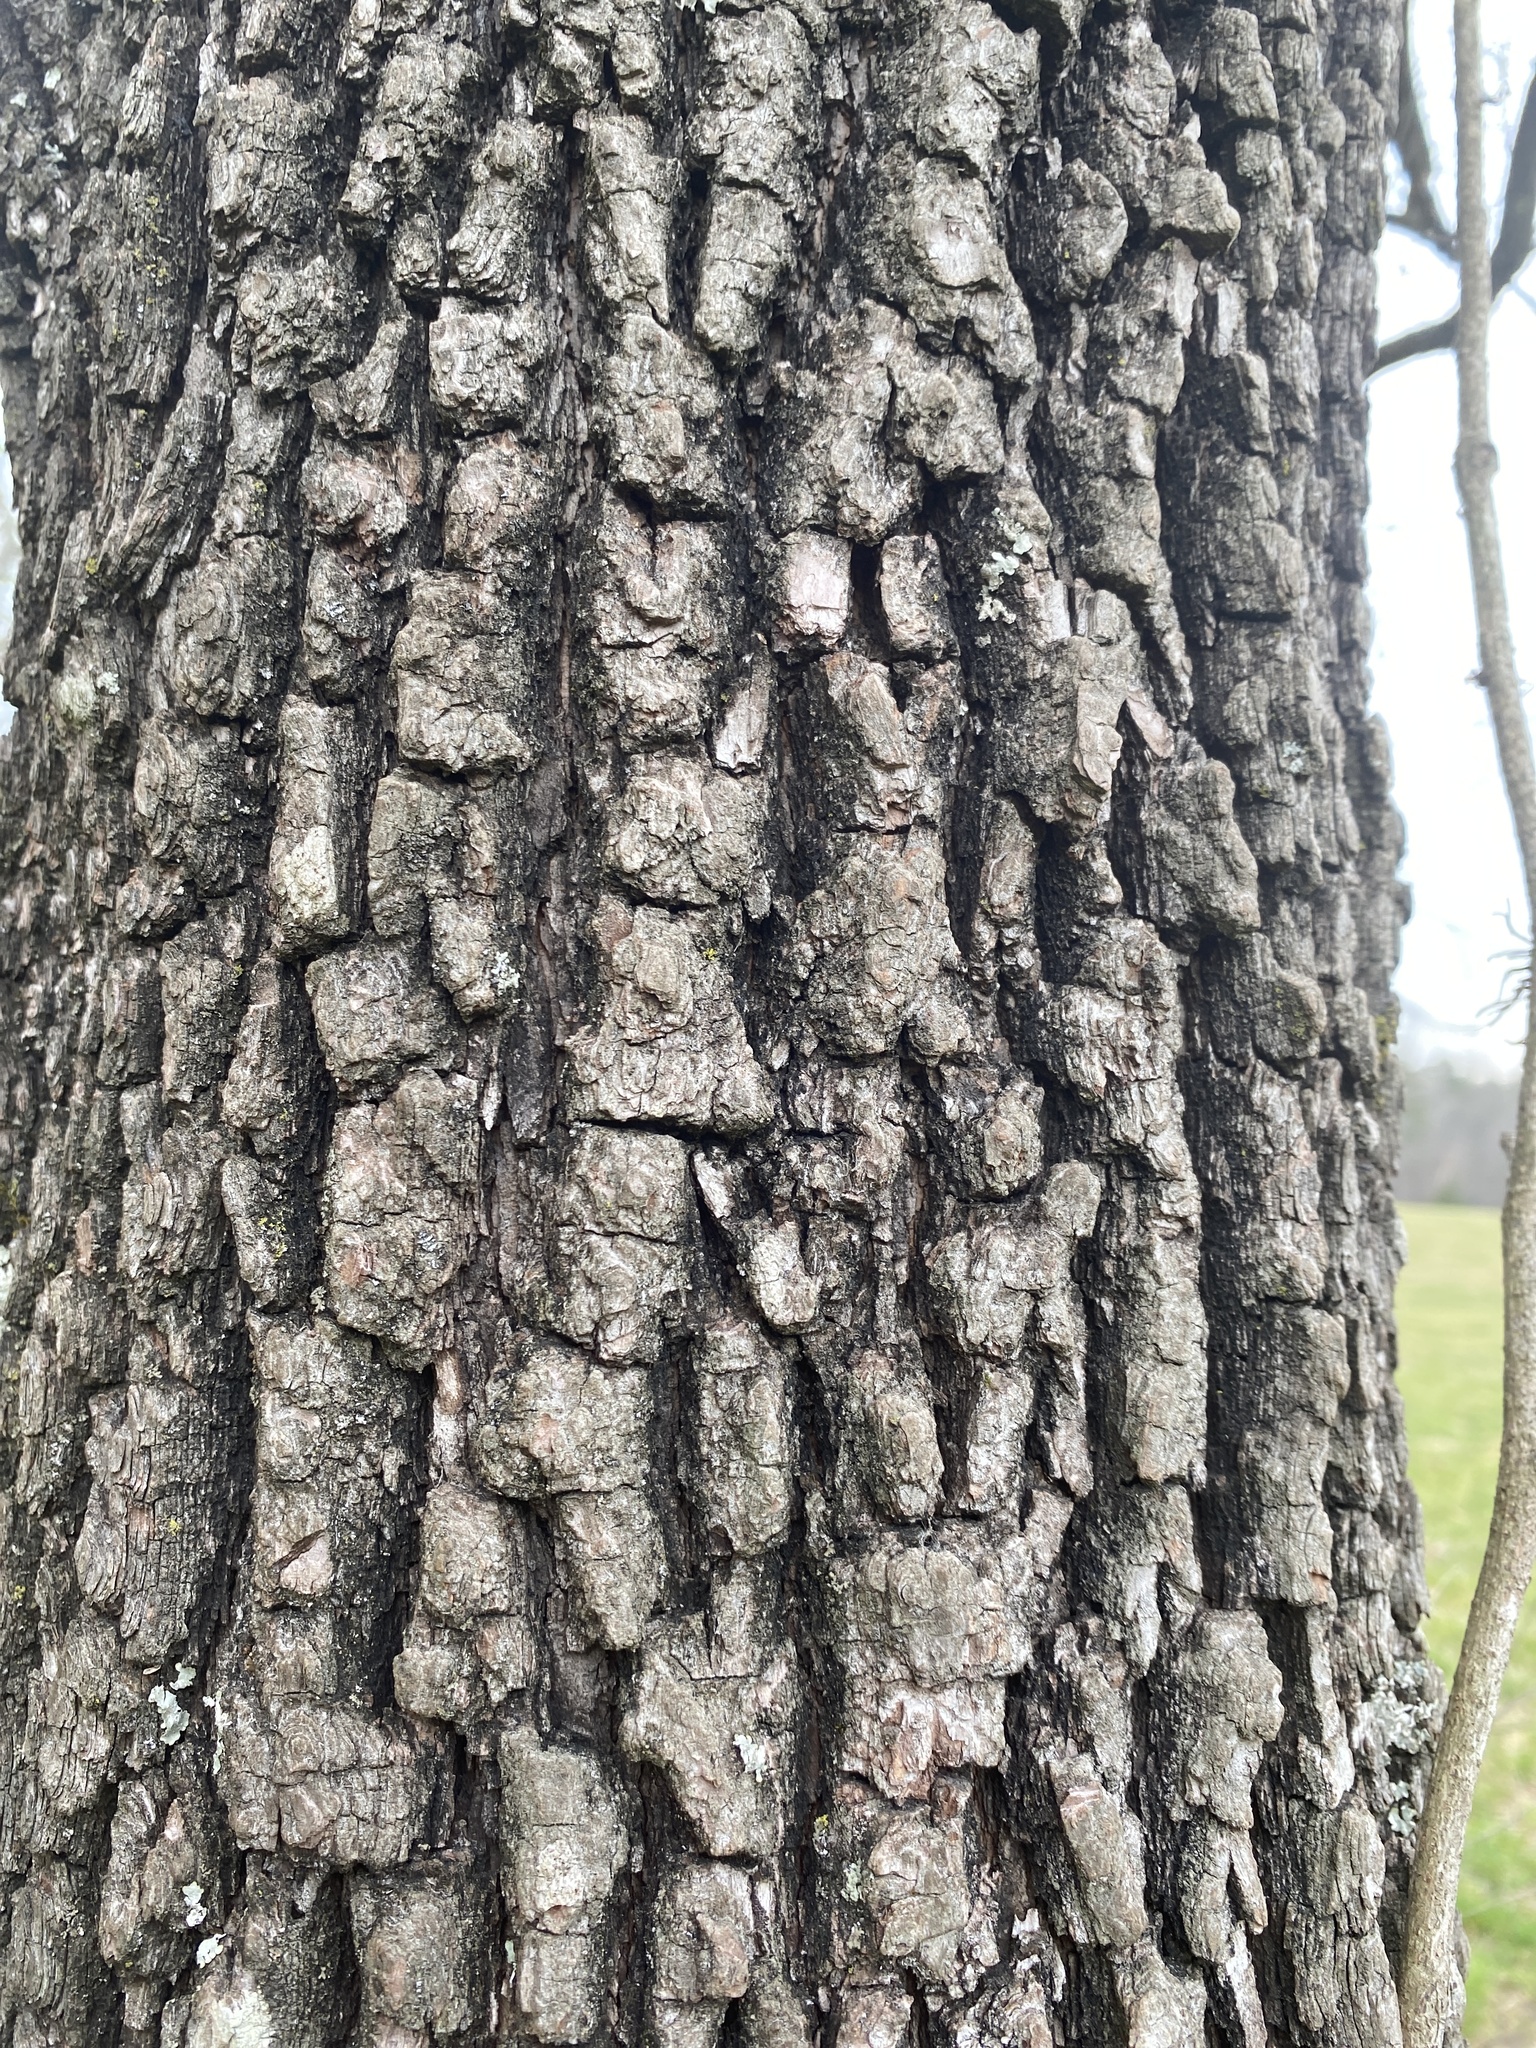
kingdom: Plantae
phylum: Tracheophyta
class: Magnoliopsida
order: Ericales
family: Ebenaceae
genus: Diospyros
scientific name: Diospyros virginiana
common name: Persimmon
